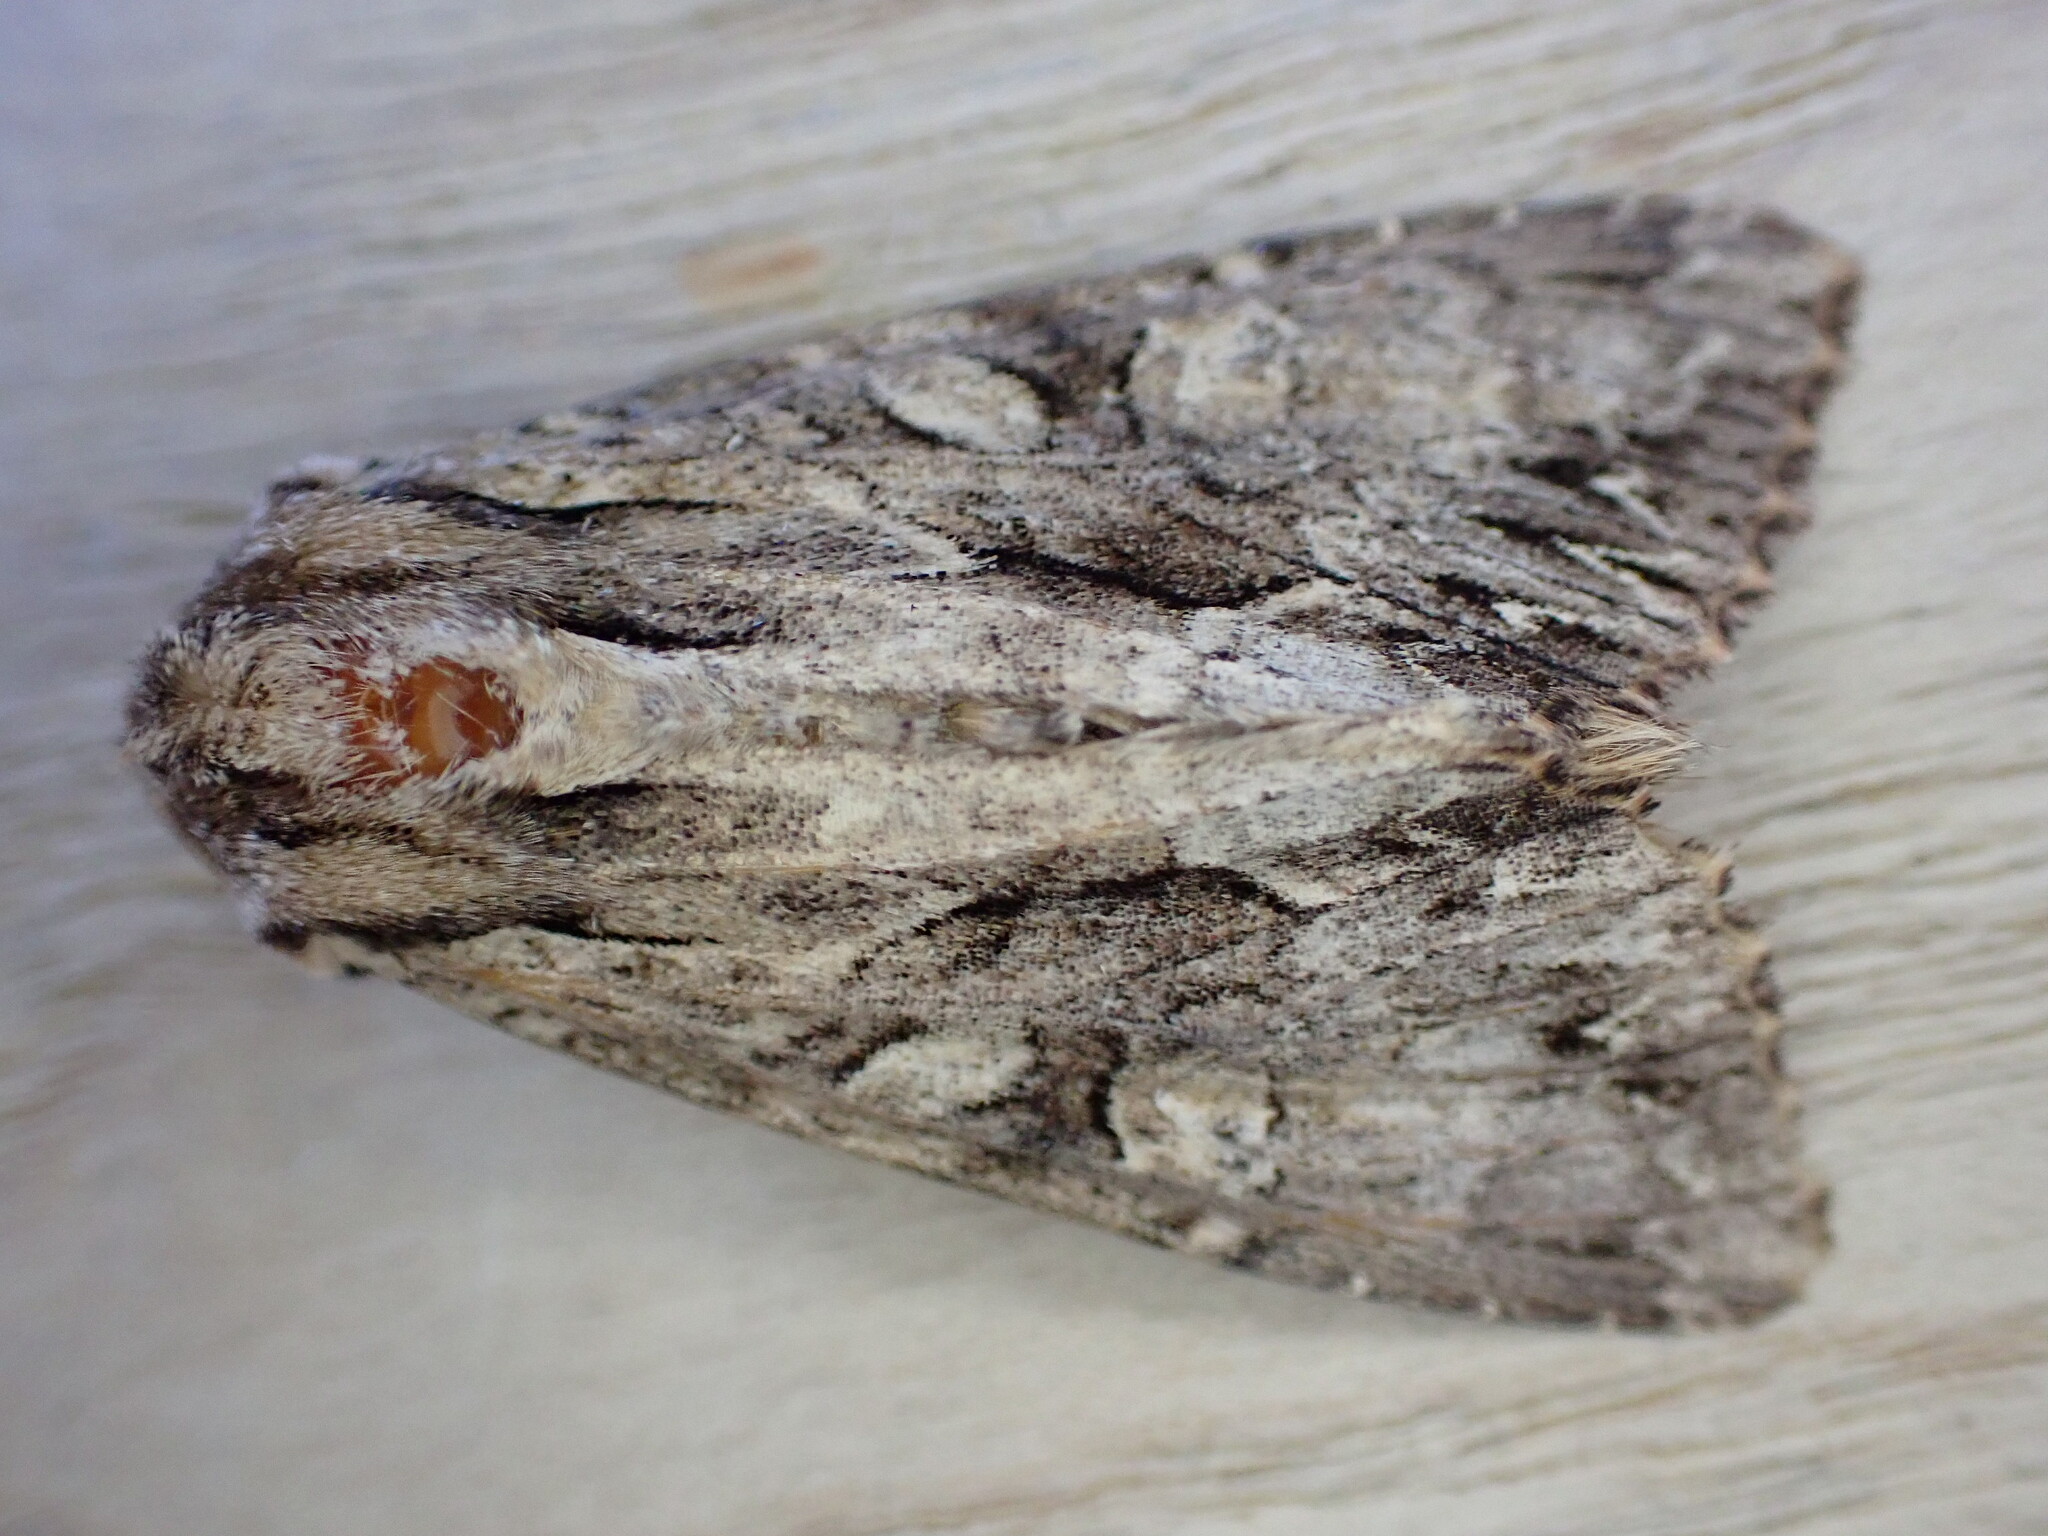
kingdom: Animalia
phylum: Arthropoda
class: Insecta
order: Lepidoptera
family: Noctuidae
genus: Apamea
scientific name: Apamea monoglypha
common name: Dark arches
